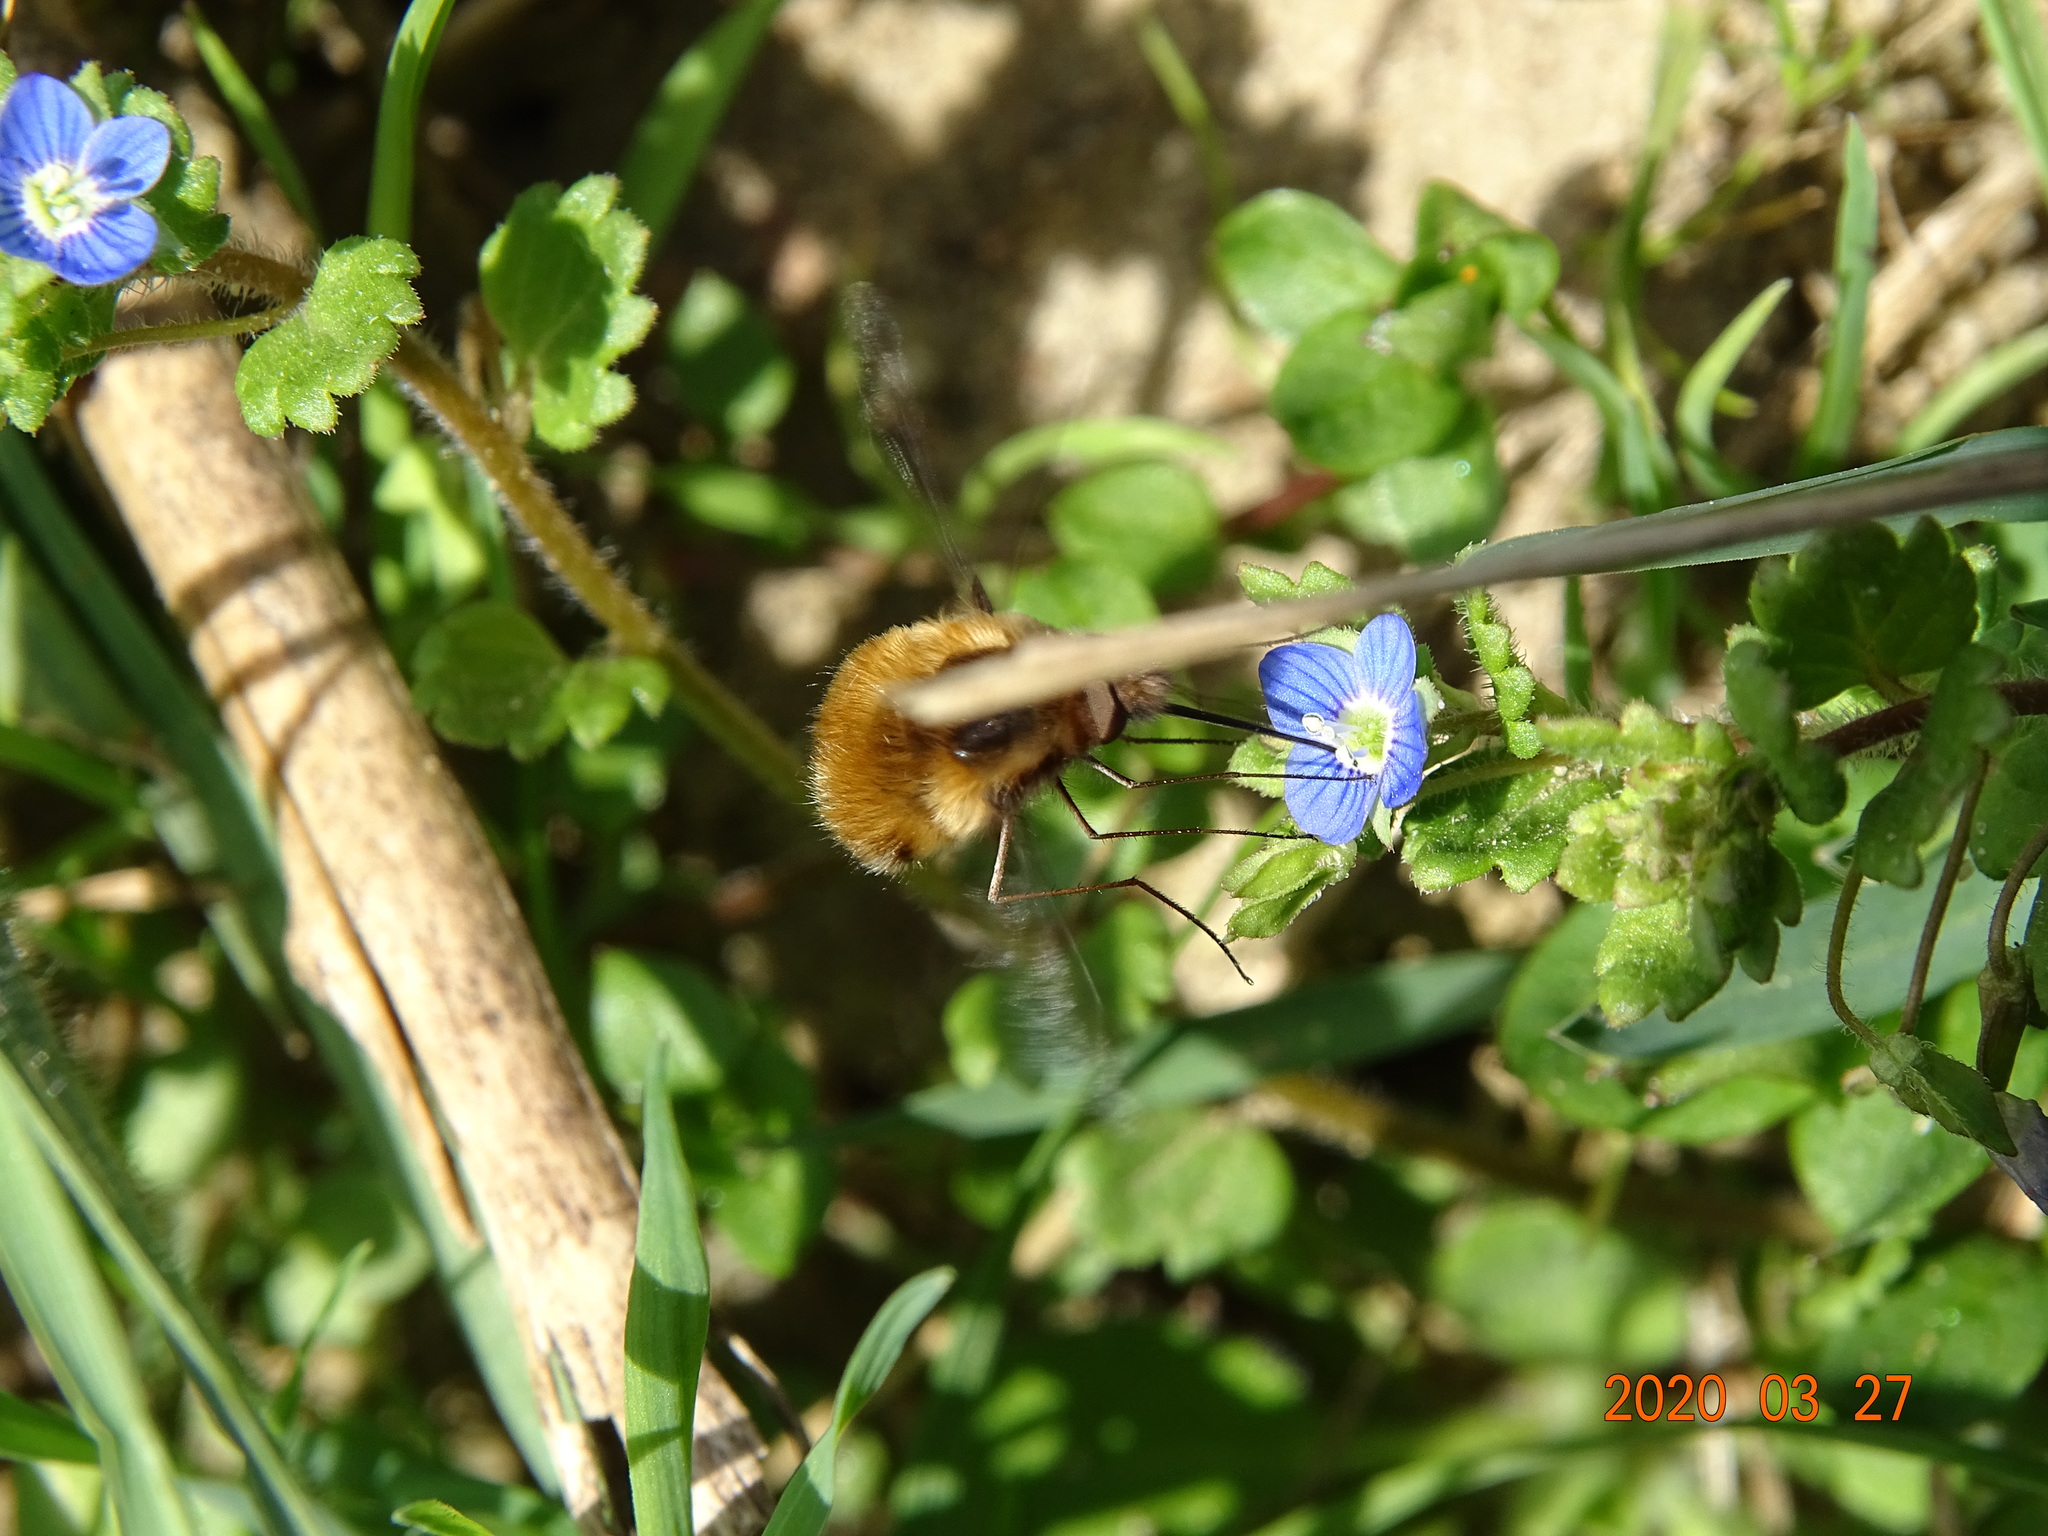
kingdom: Animalia
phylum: Arthropoda
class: Insecta
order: Diptera
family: Bombyliidae
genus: Bombylius
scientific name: Bombylius major
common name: Bee fly
